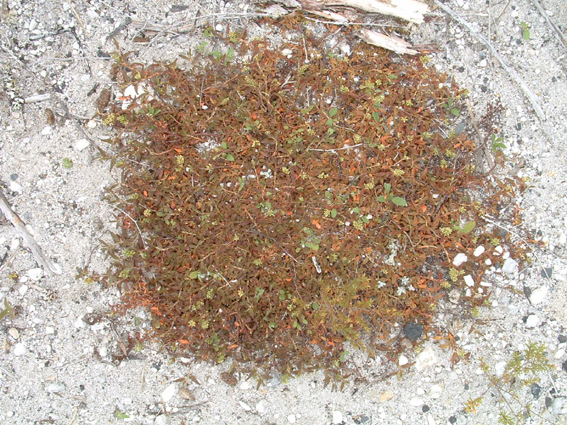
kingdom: Plantae
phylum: Tracheophyta
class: Magnoliopsida
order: Caryophyllales
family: Polygonaceae
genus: Persicaria
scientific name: Persicaria prostrata
